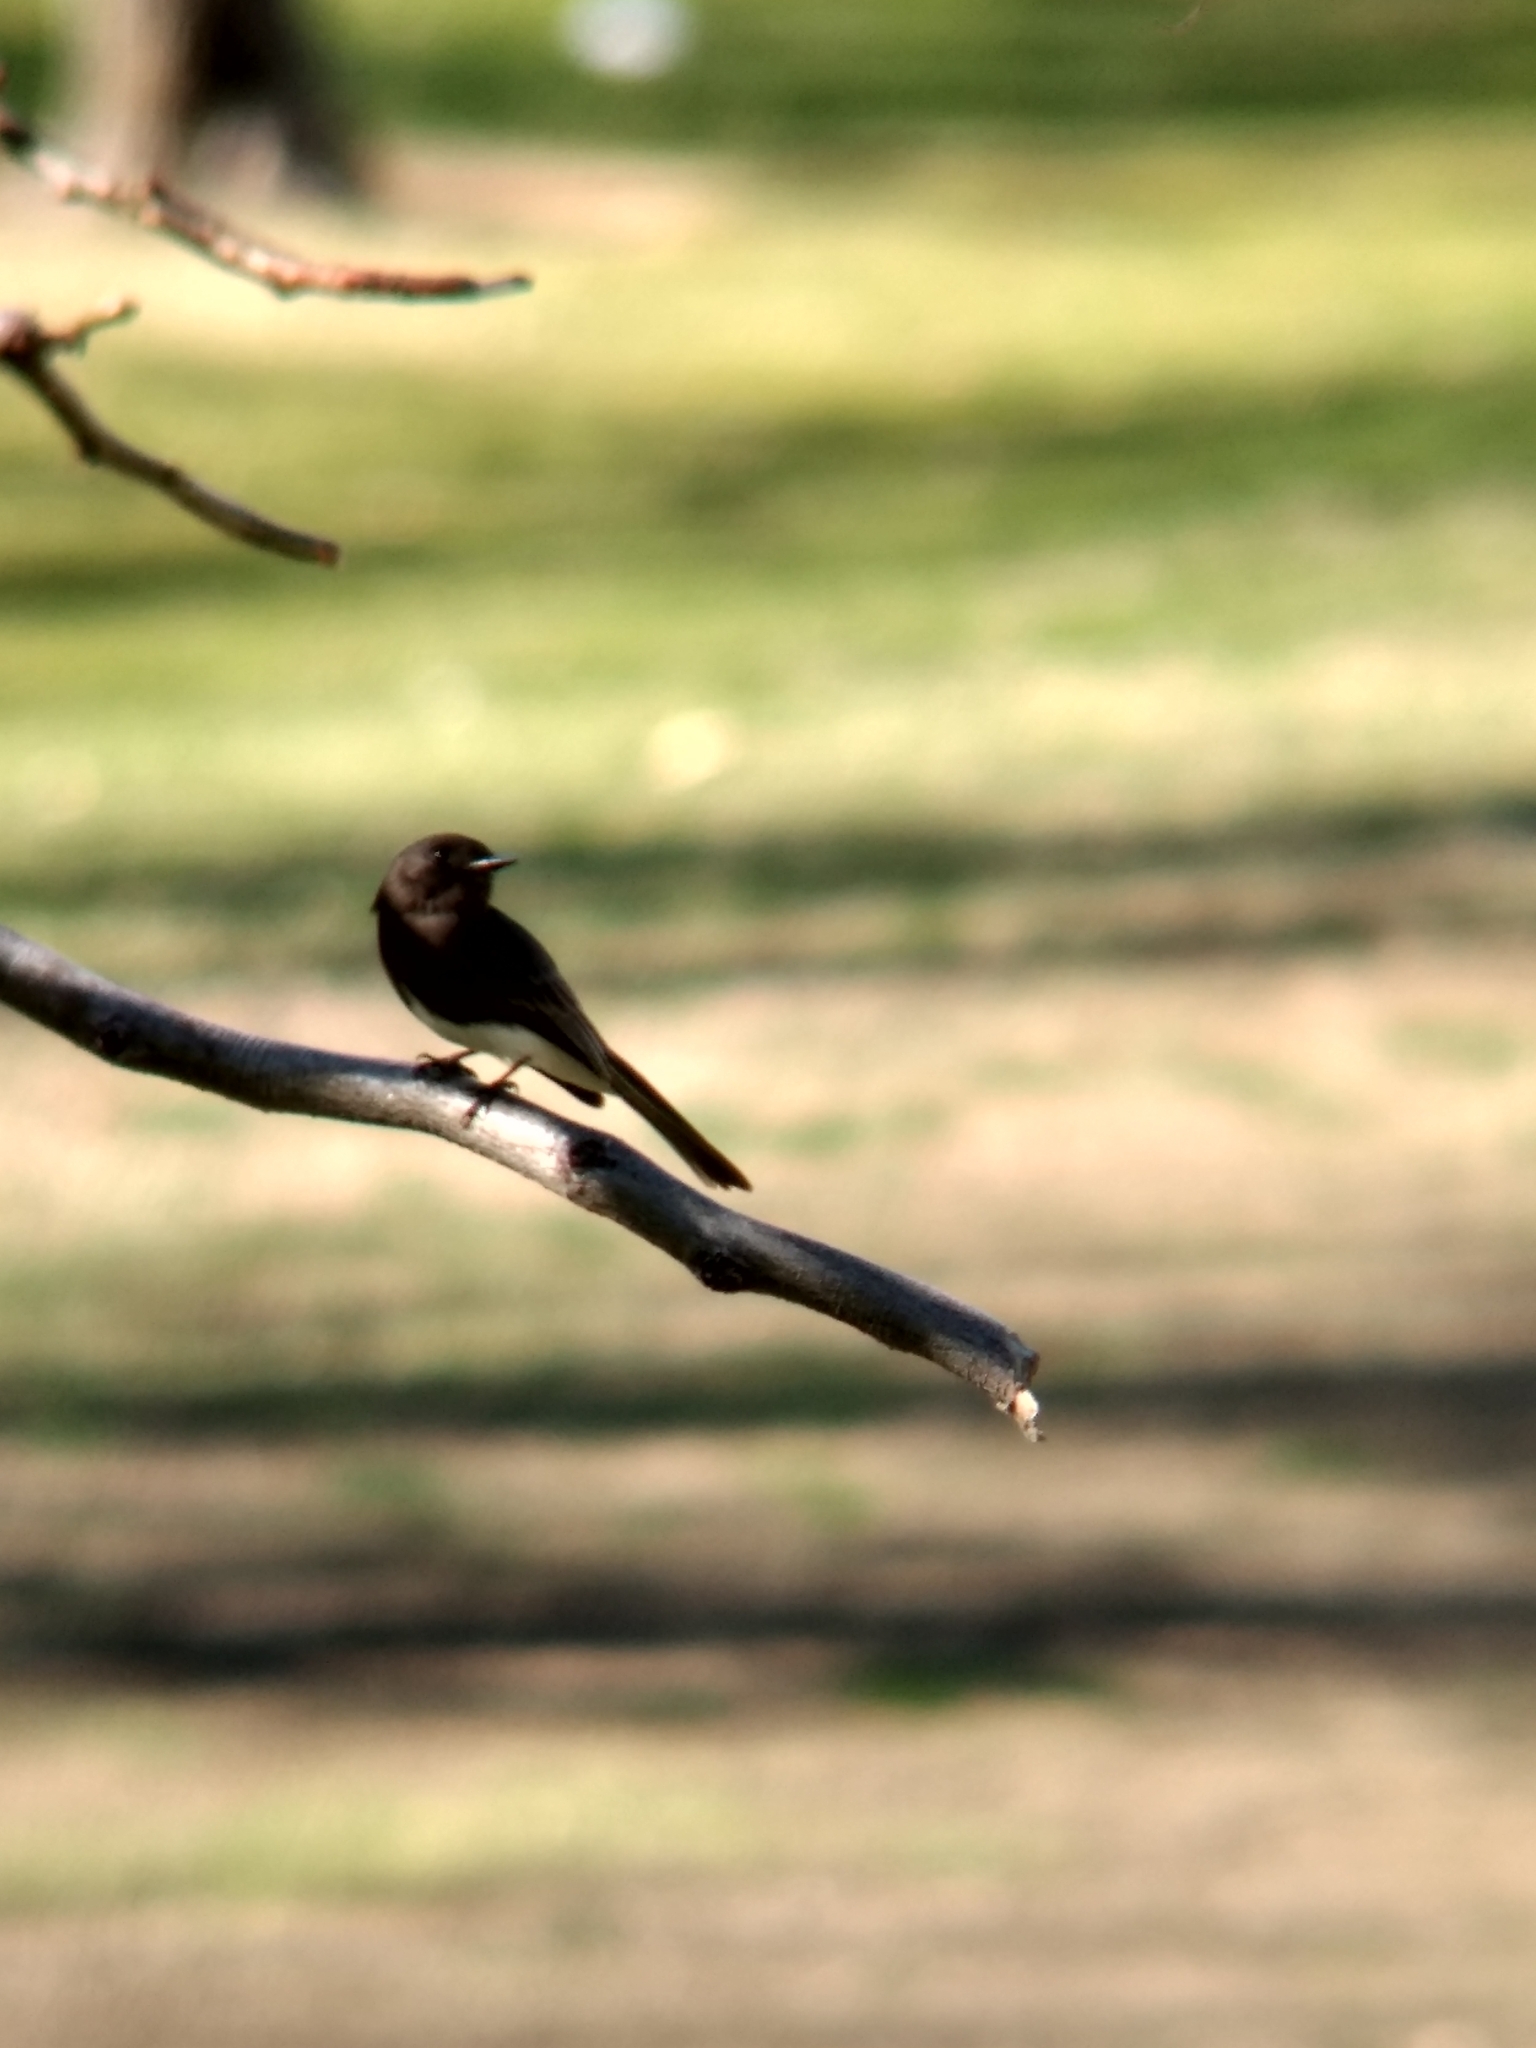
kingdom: Animalia
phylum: Chordata
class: Aves
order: Passeriformes
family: Tyrannidae
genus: Sayornis
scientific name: Sayornis nigricans
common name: Black phoebe
